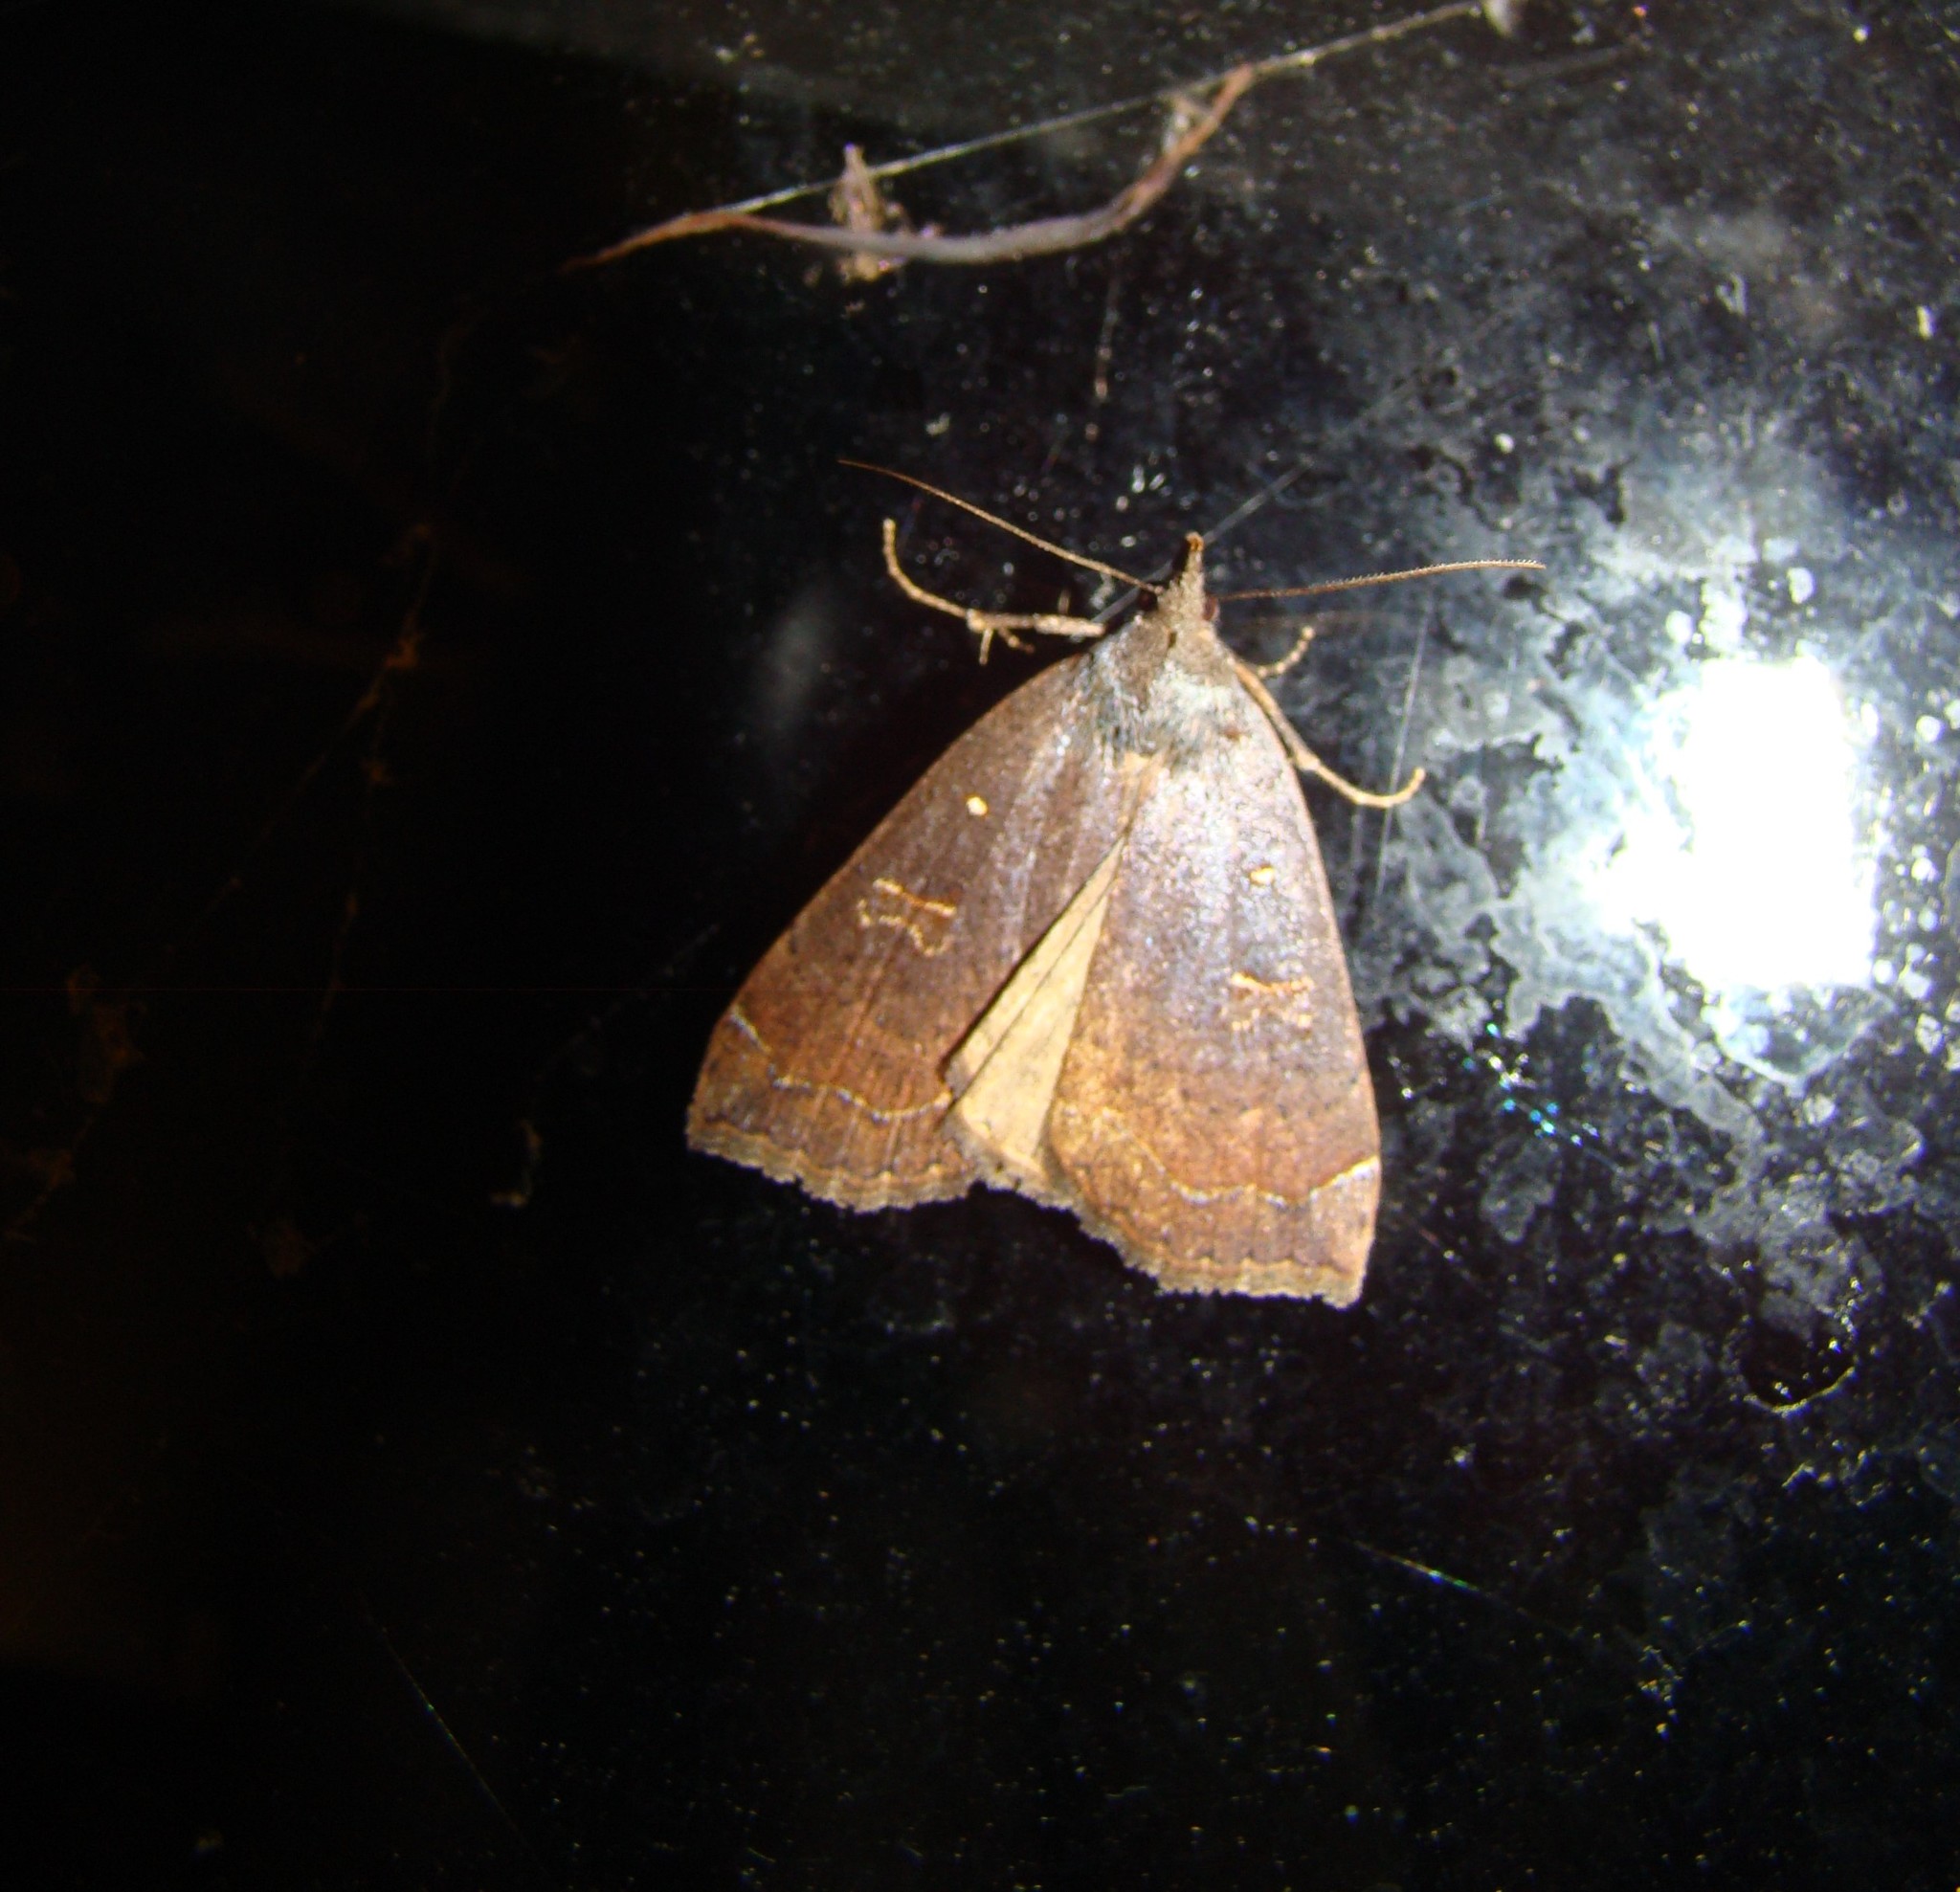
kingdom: Animalia
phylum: Arthropoda
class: Insecta
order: Lepidoptera
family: Erebidae
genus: Rhapsa
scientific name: Rhapsa scotosialis
